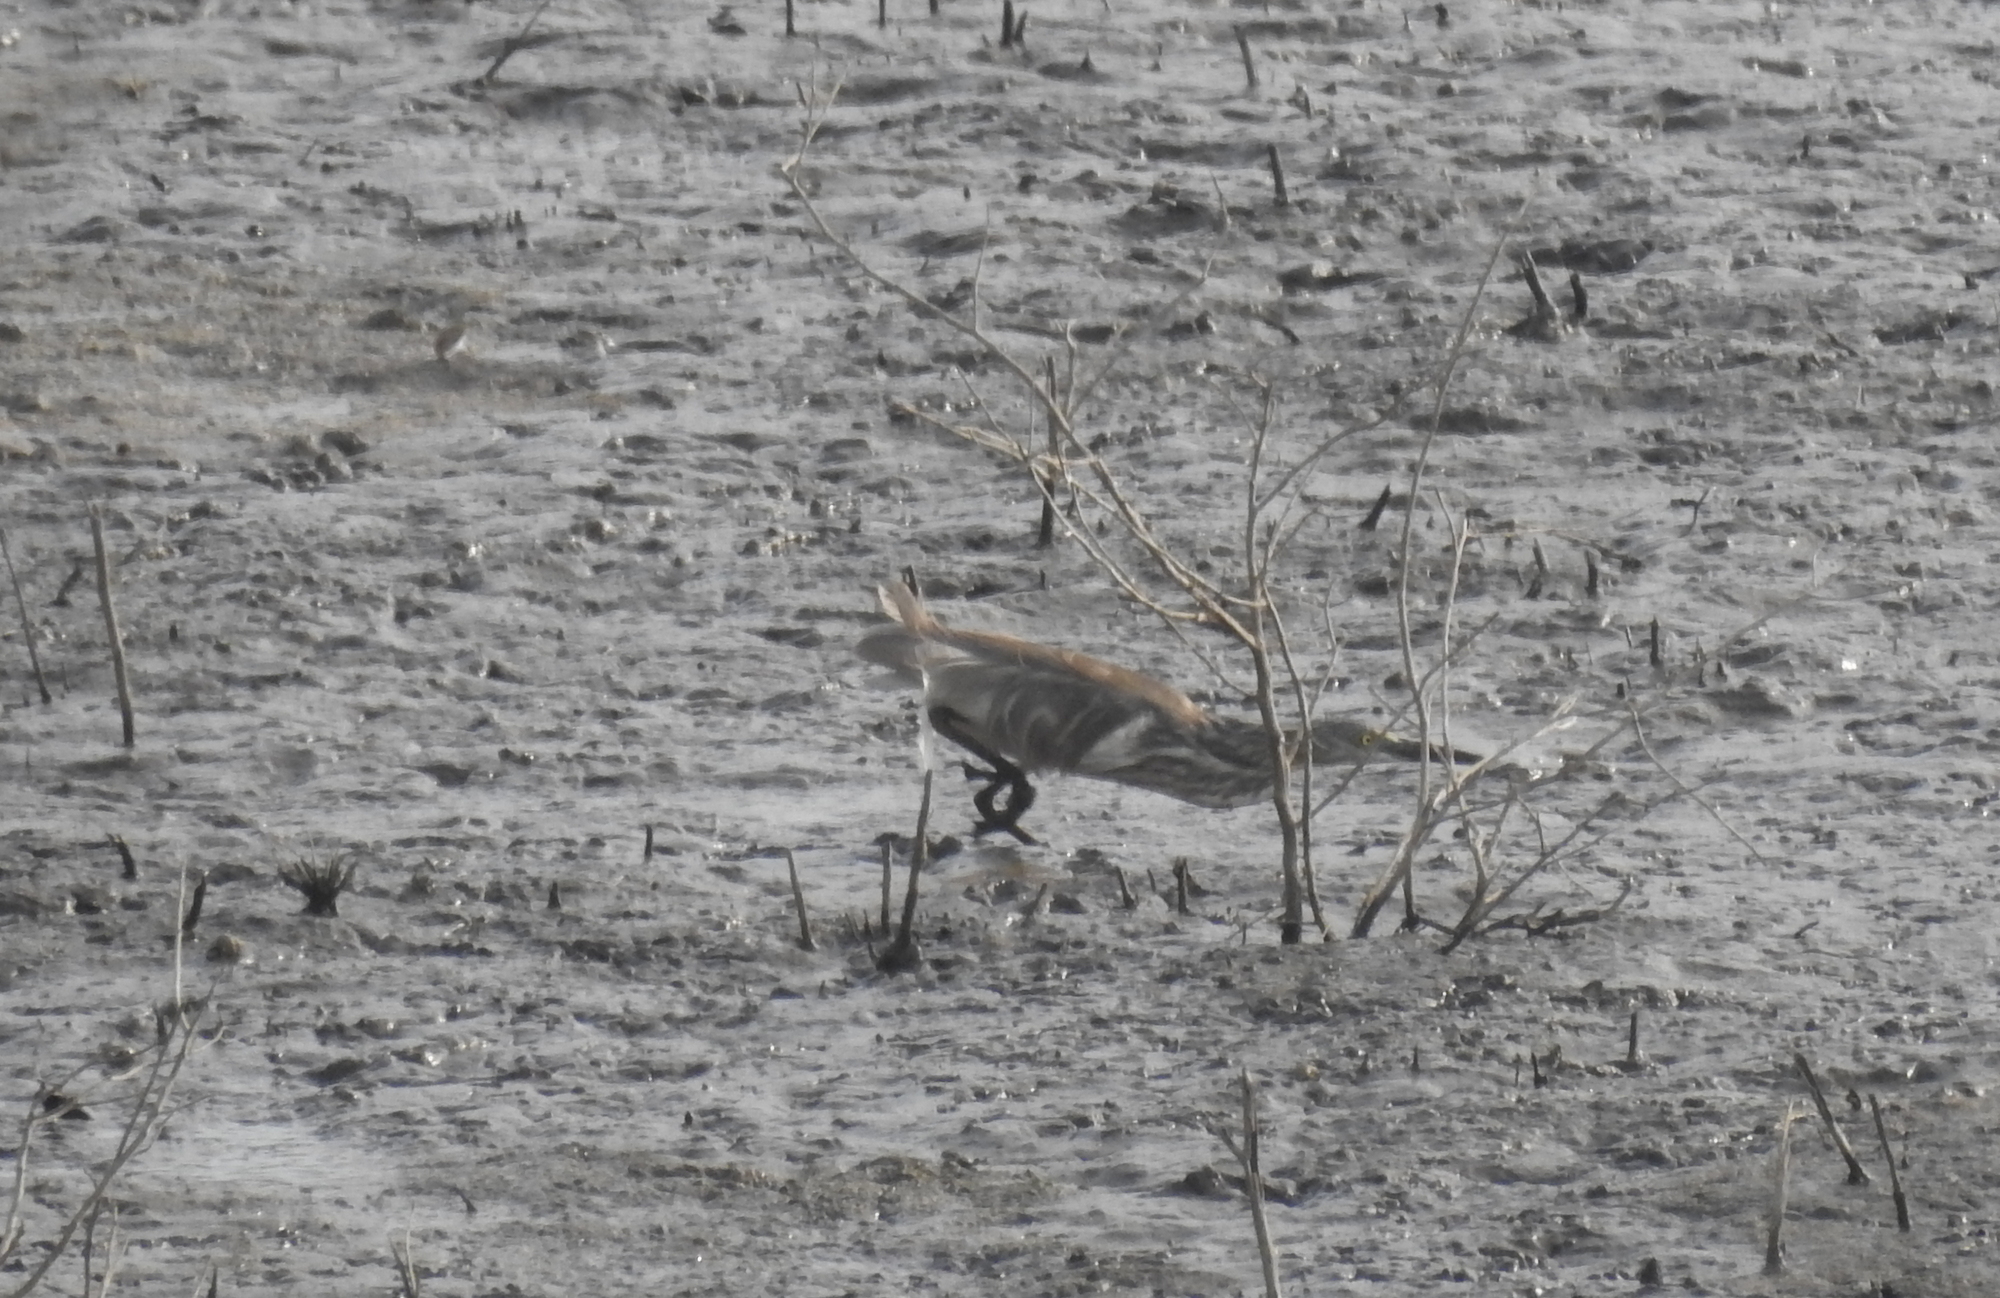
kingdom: Animalia
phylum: Chordata
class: Aves
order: Pelecaniformes
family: Ardeidae
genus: Ardeola
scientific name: Ardeola grayii
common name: Indian pond heron
